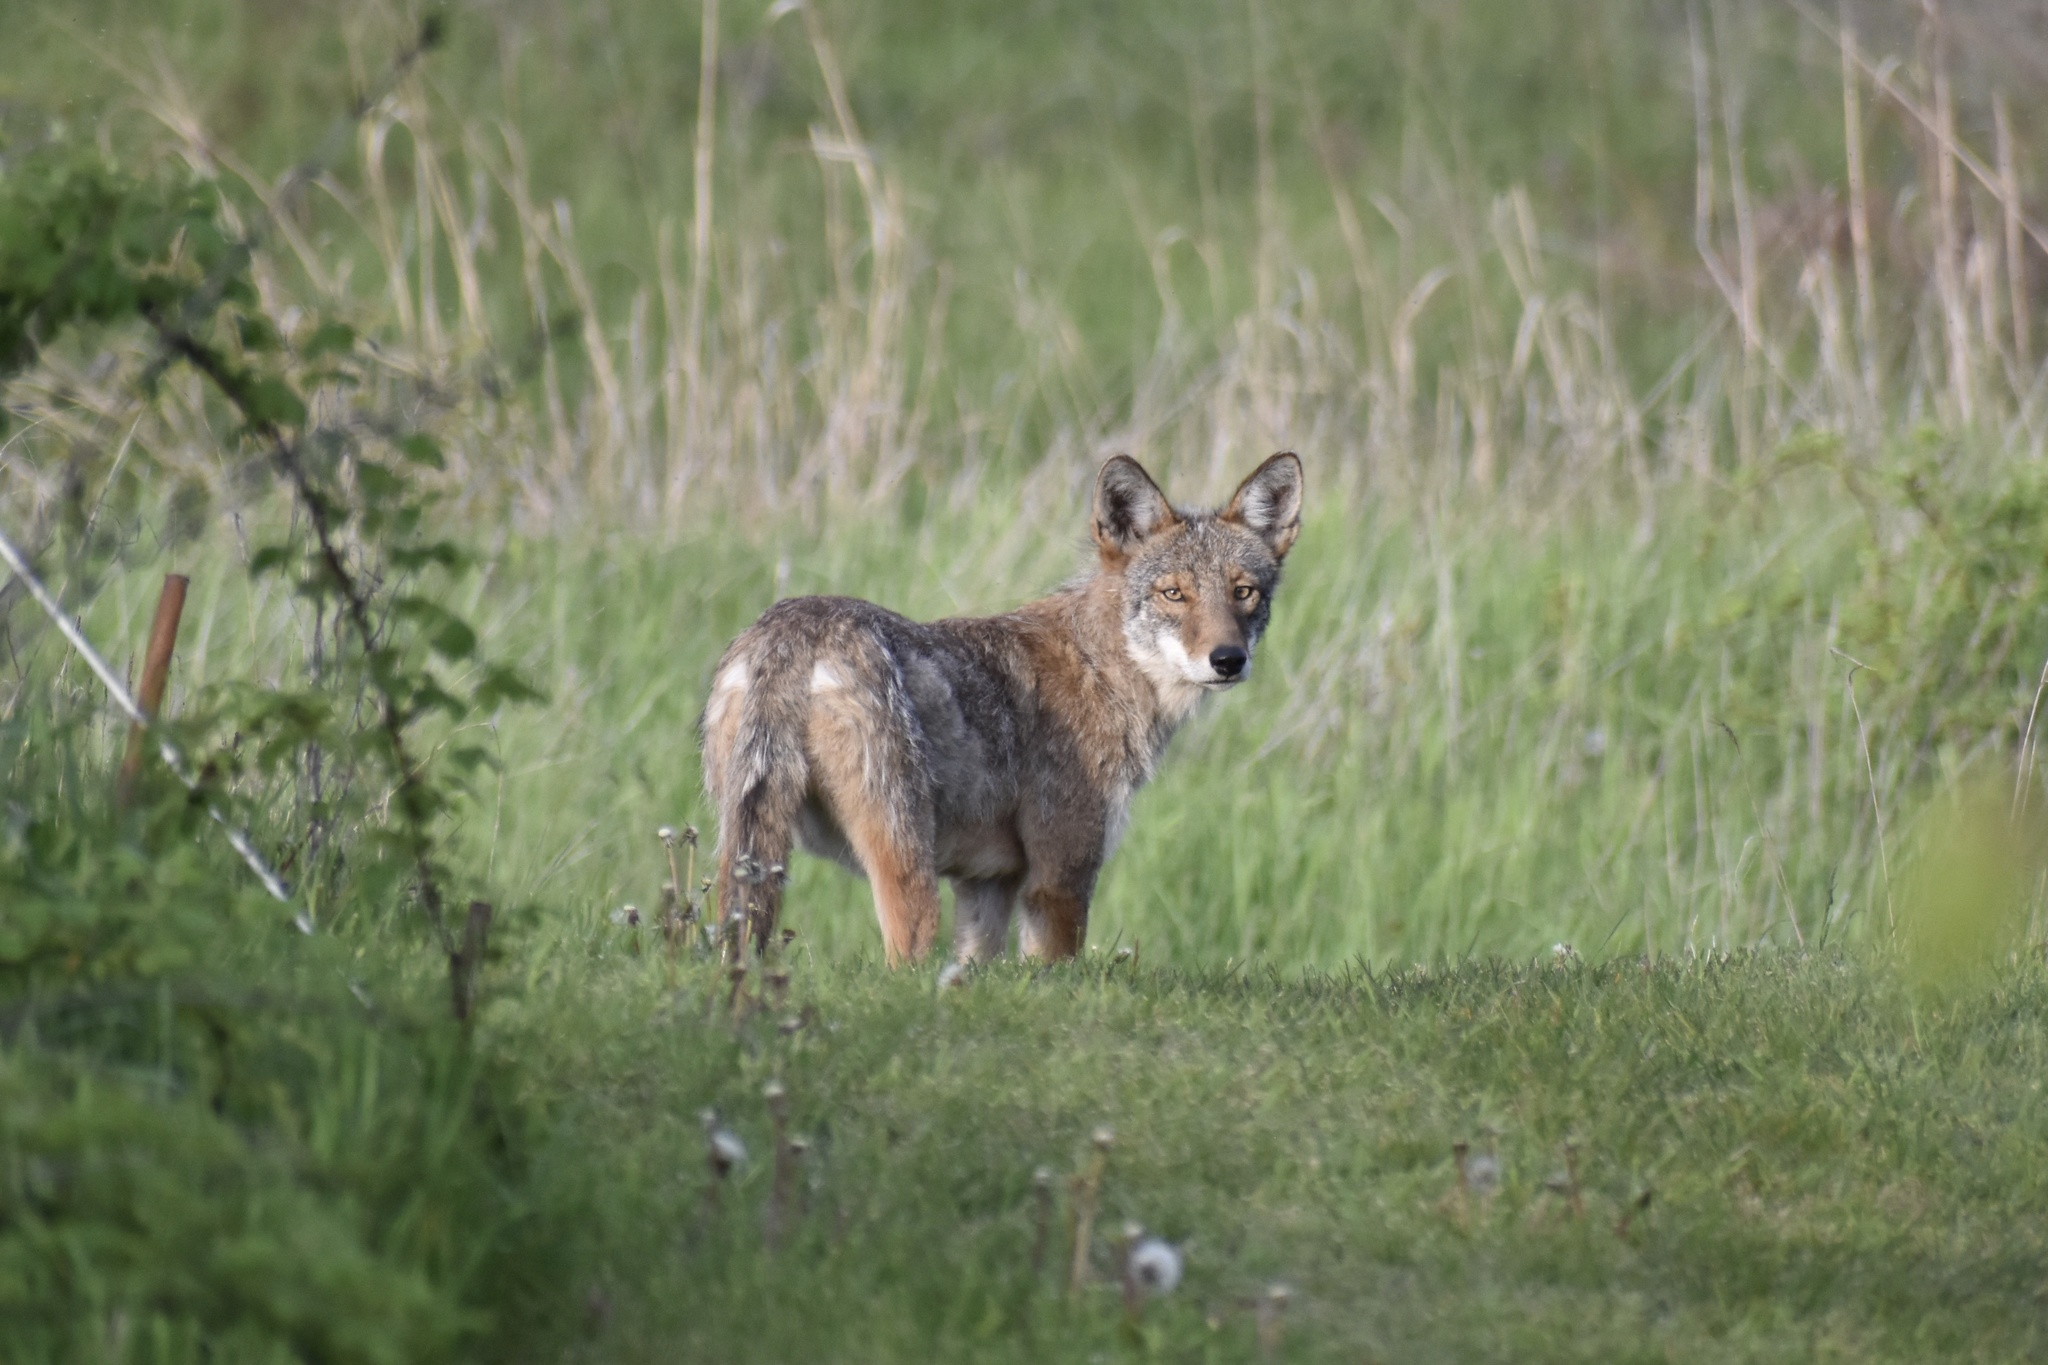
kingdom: Animalia
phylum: Chordata
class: Mammalia
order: Carnivora
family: Canidae
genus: Canis
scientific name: Canis latrans
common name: Coyote
